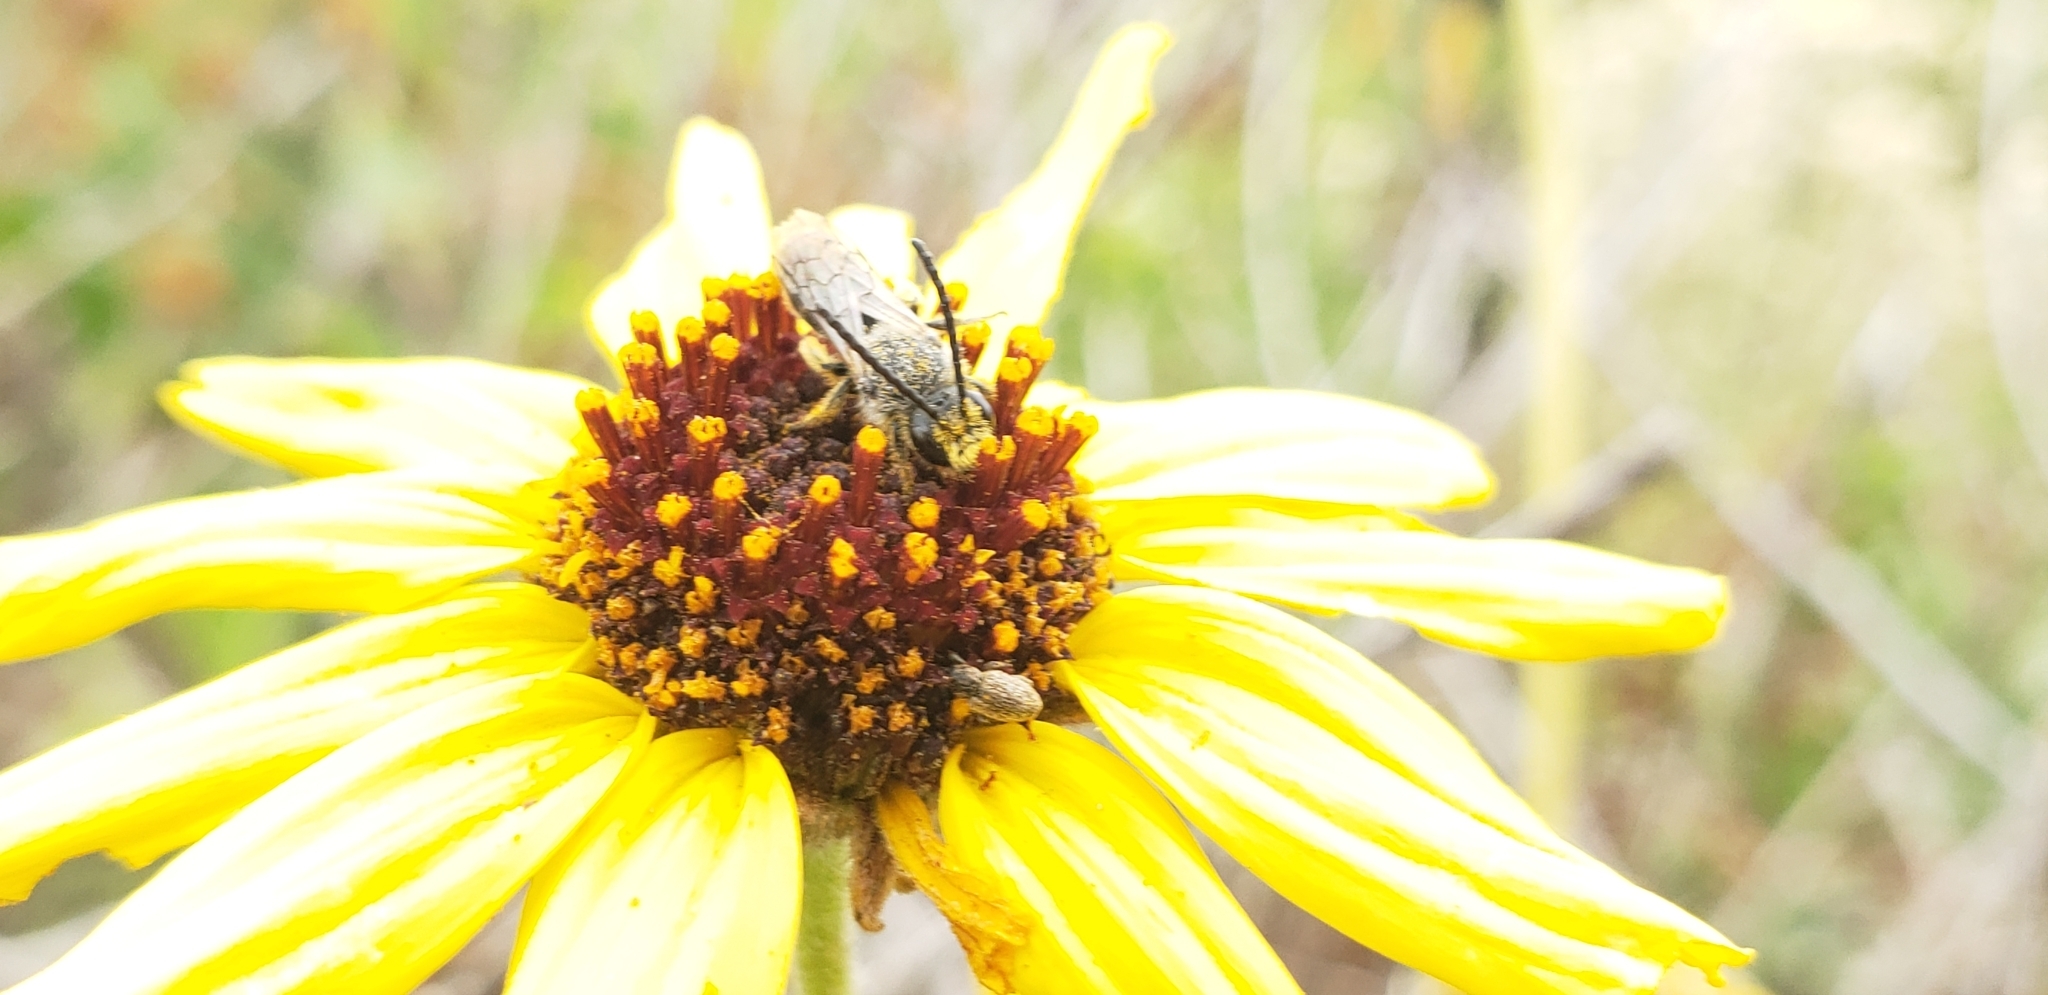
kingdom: Animalia
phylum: Arthropoda
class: Insecta
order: Hymenoptera
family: Halictidae
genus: Dufourea
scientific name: Dufourea australis
